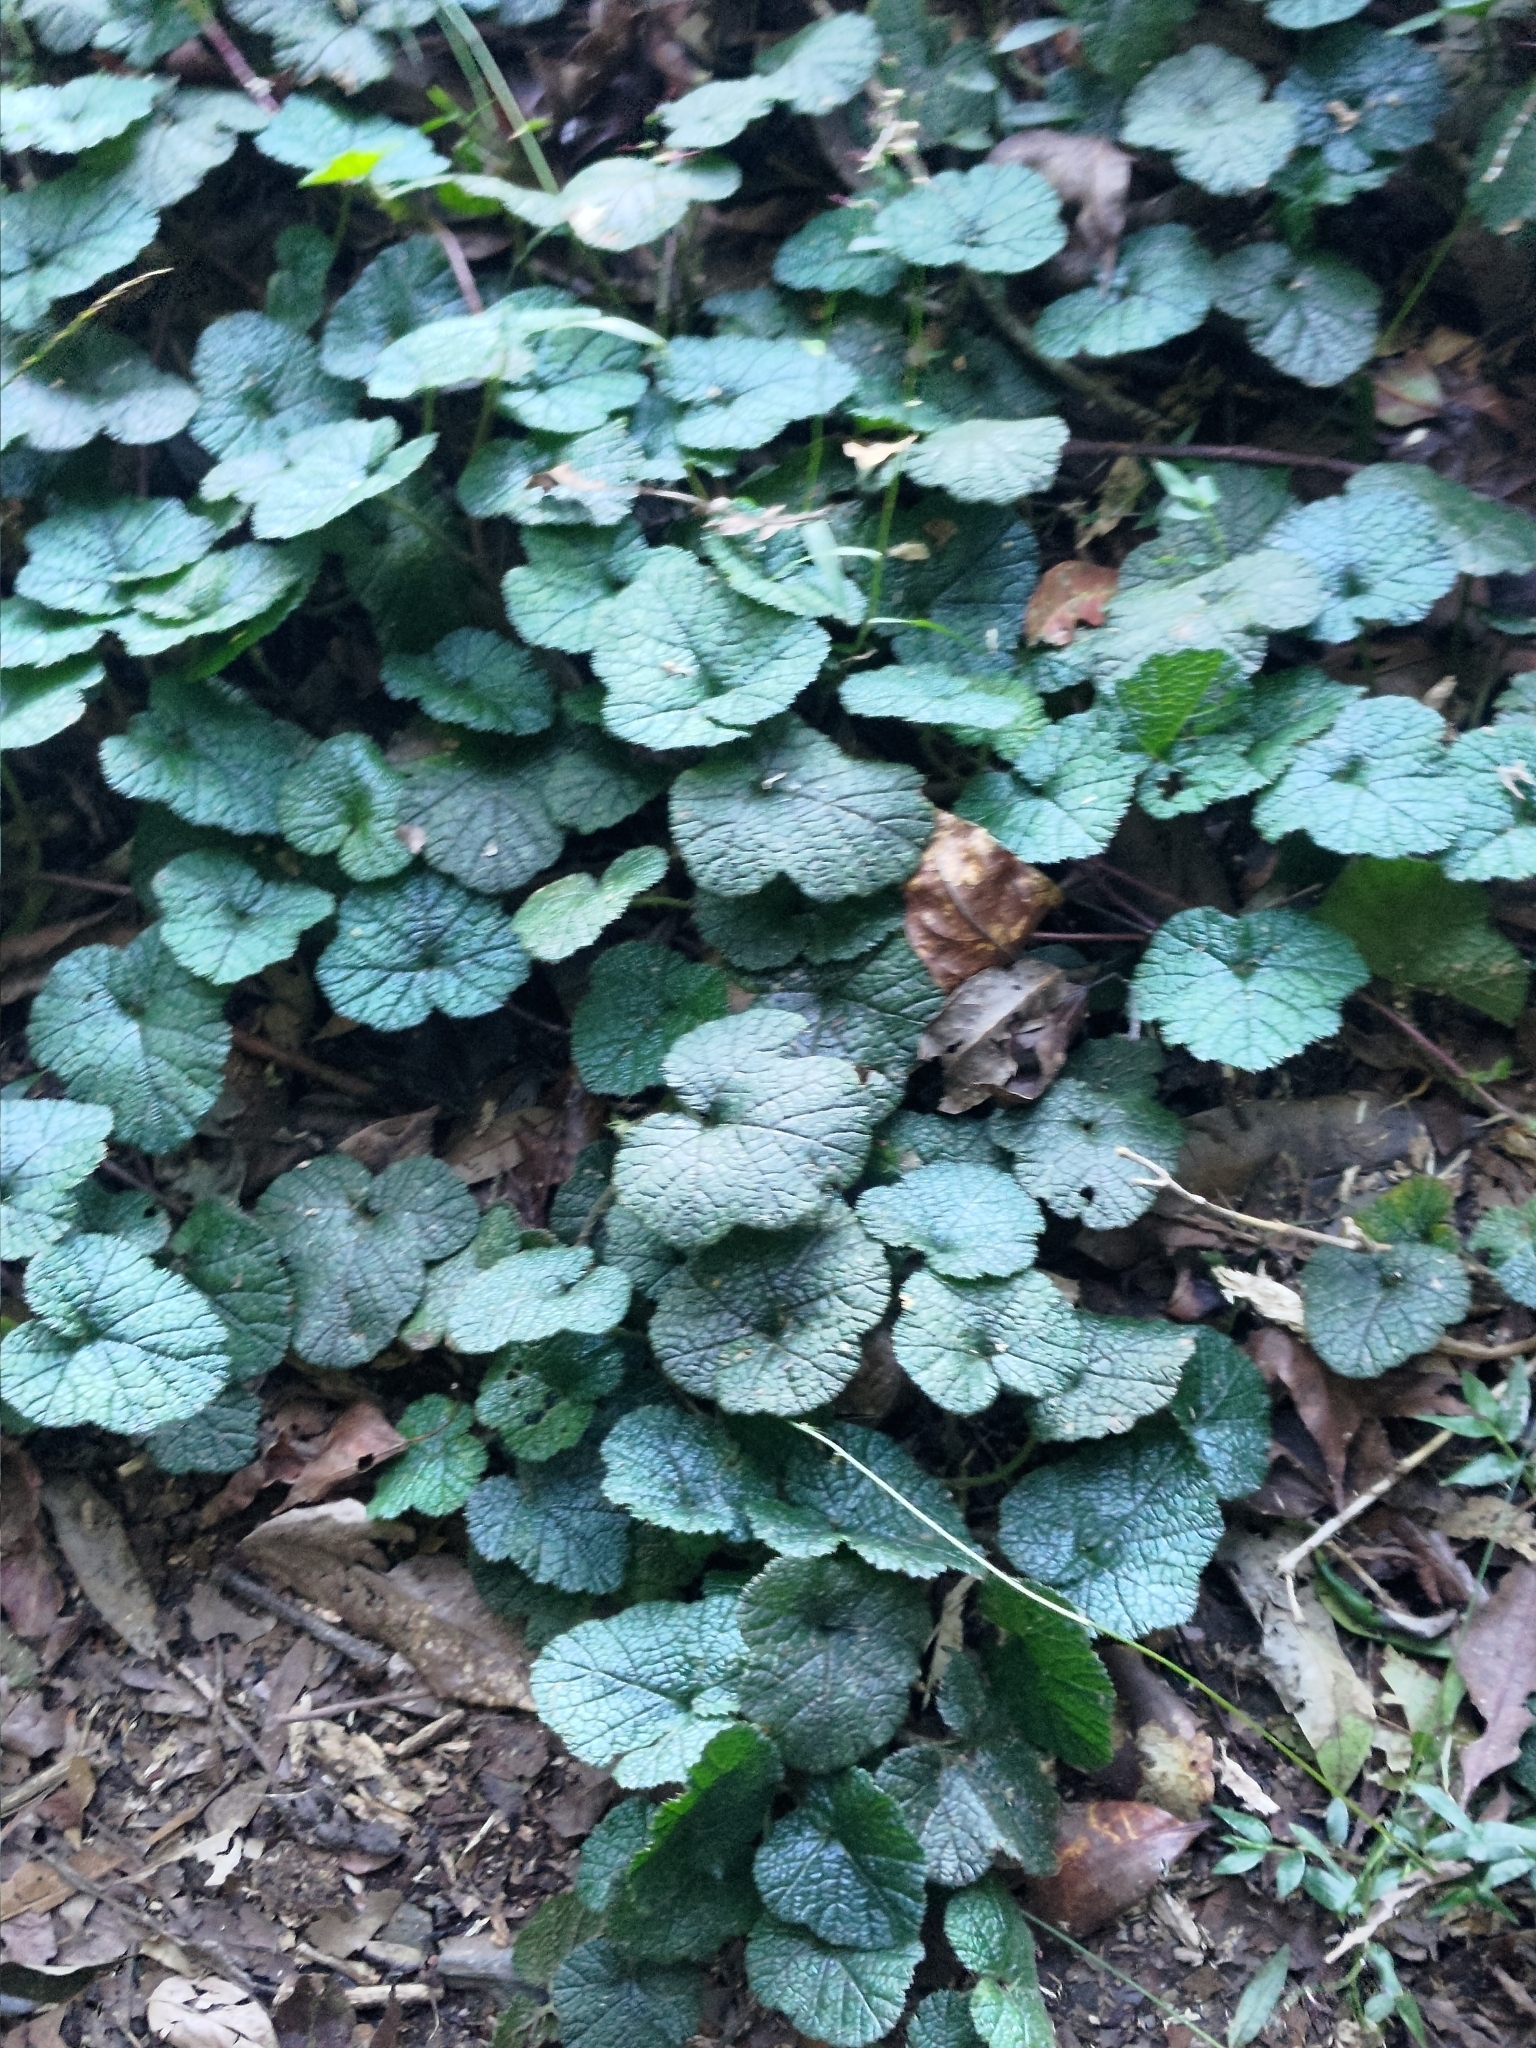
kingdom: Plantae
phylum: Tracheophyta
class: Magnoliopsida
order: Rosales
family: Rosaceae
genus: Rubus
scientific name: Rubus pectinellus
